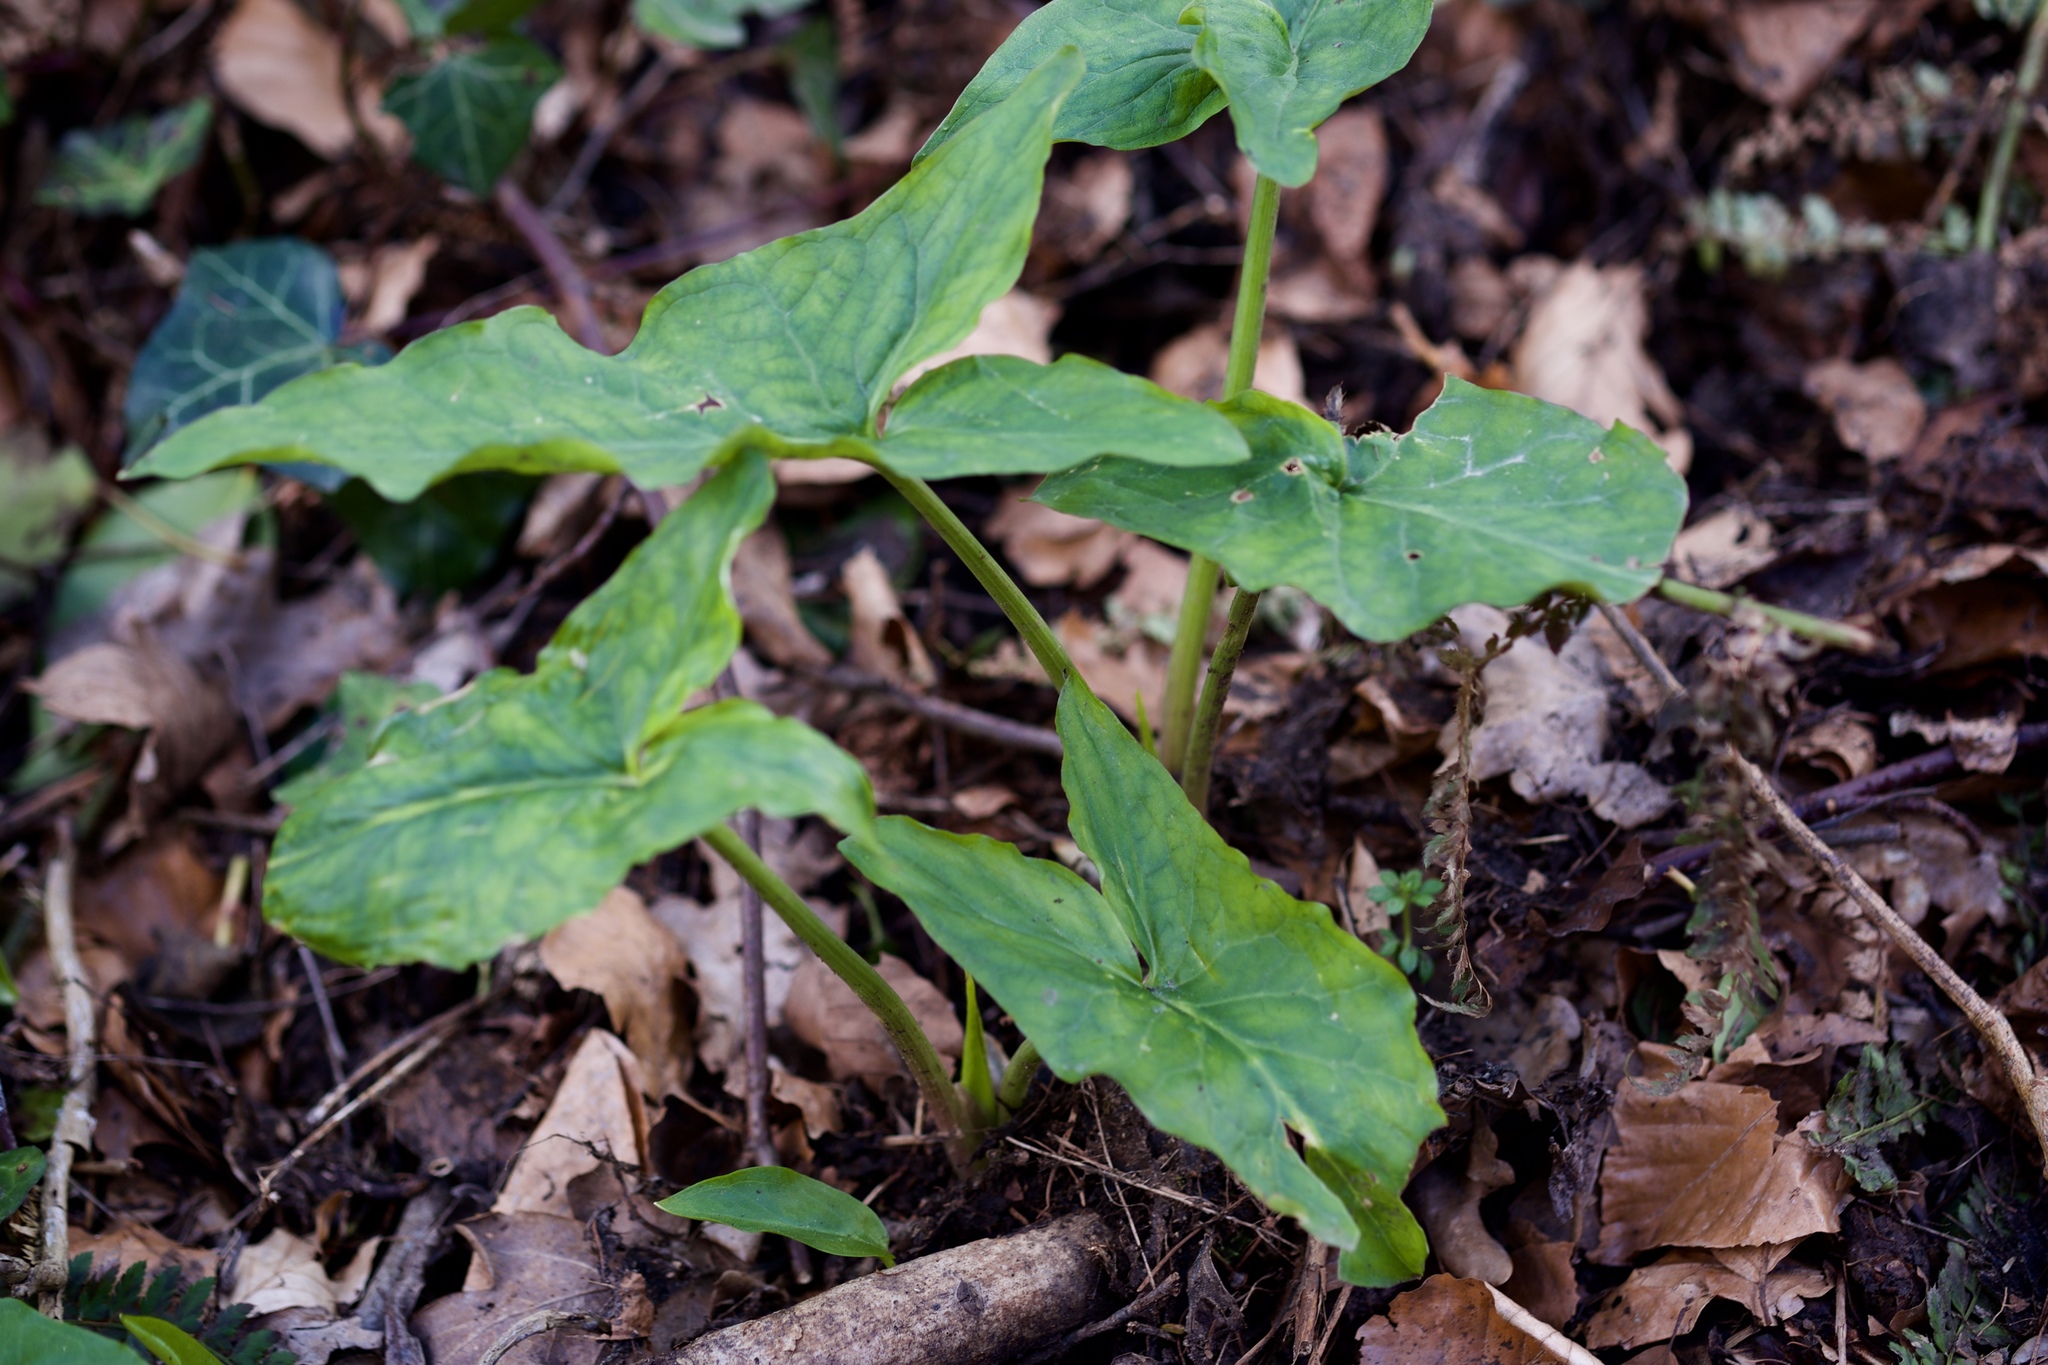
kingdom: Plantae
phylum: Tracheophyta
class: Liliopsida
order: Alismatales
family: Araceae
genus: Arum
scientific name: Arum maculatum
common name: Lords-and-ladies
